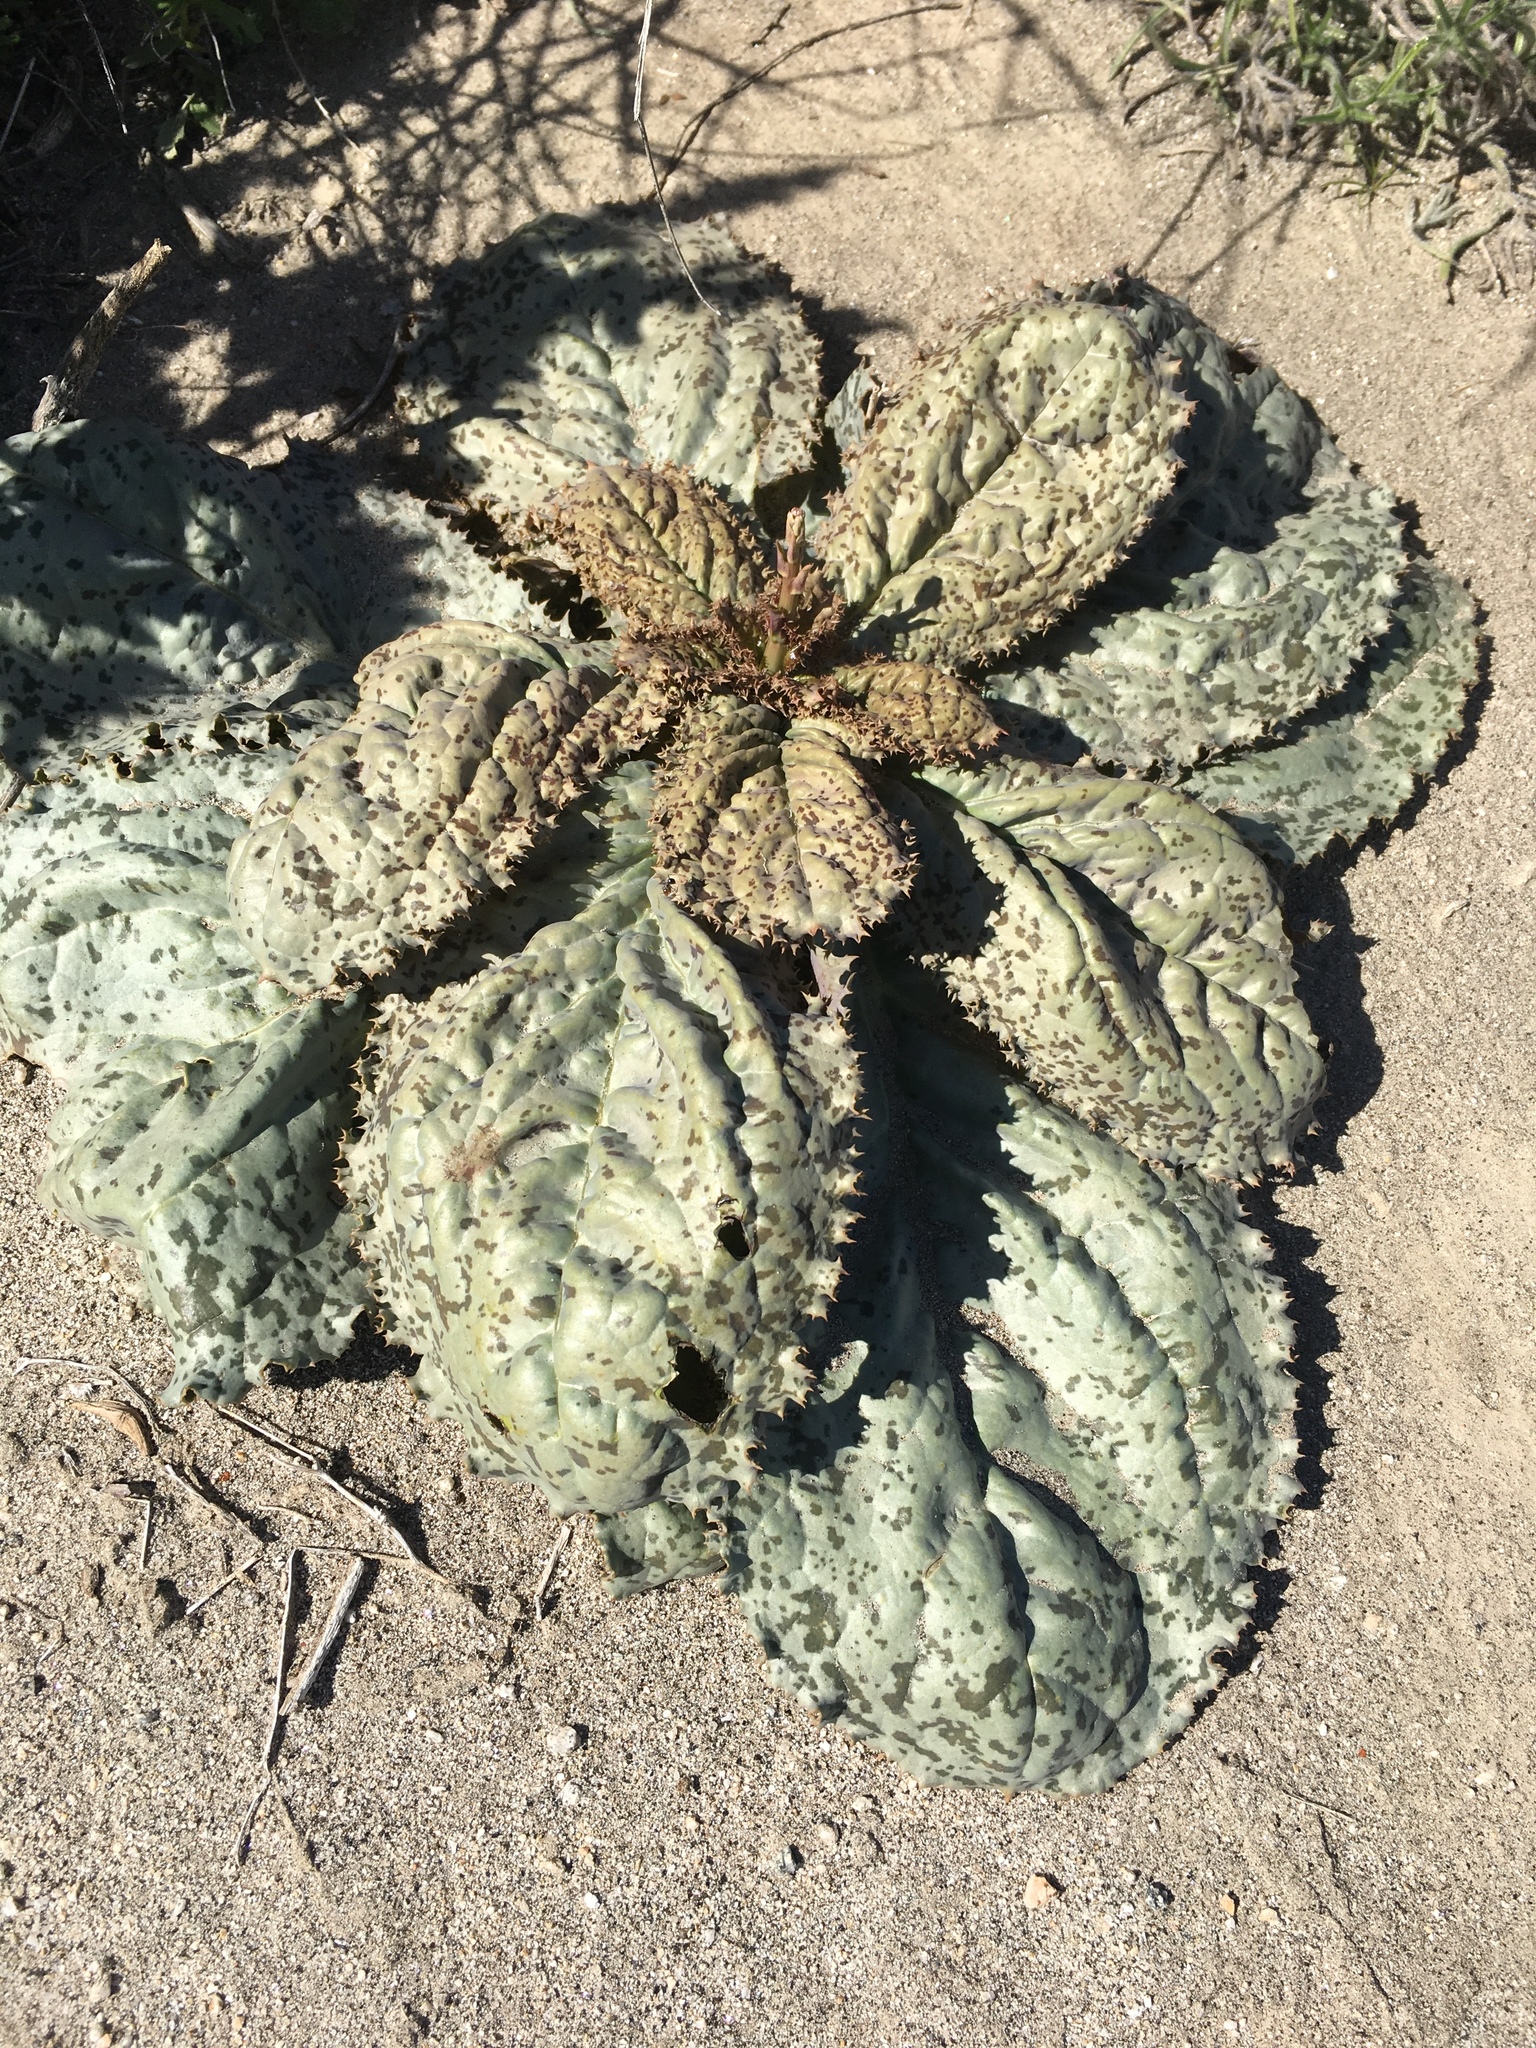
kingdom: Plantae
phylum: Tracheophyta
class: Magnoliopsida
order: Asterales
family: Asteraceae
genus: Atrichoseris
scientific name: Atrichoseris platyphylla
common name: Tobaccoweed
